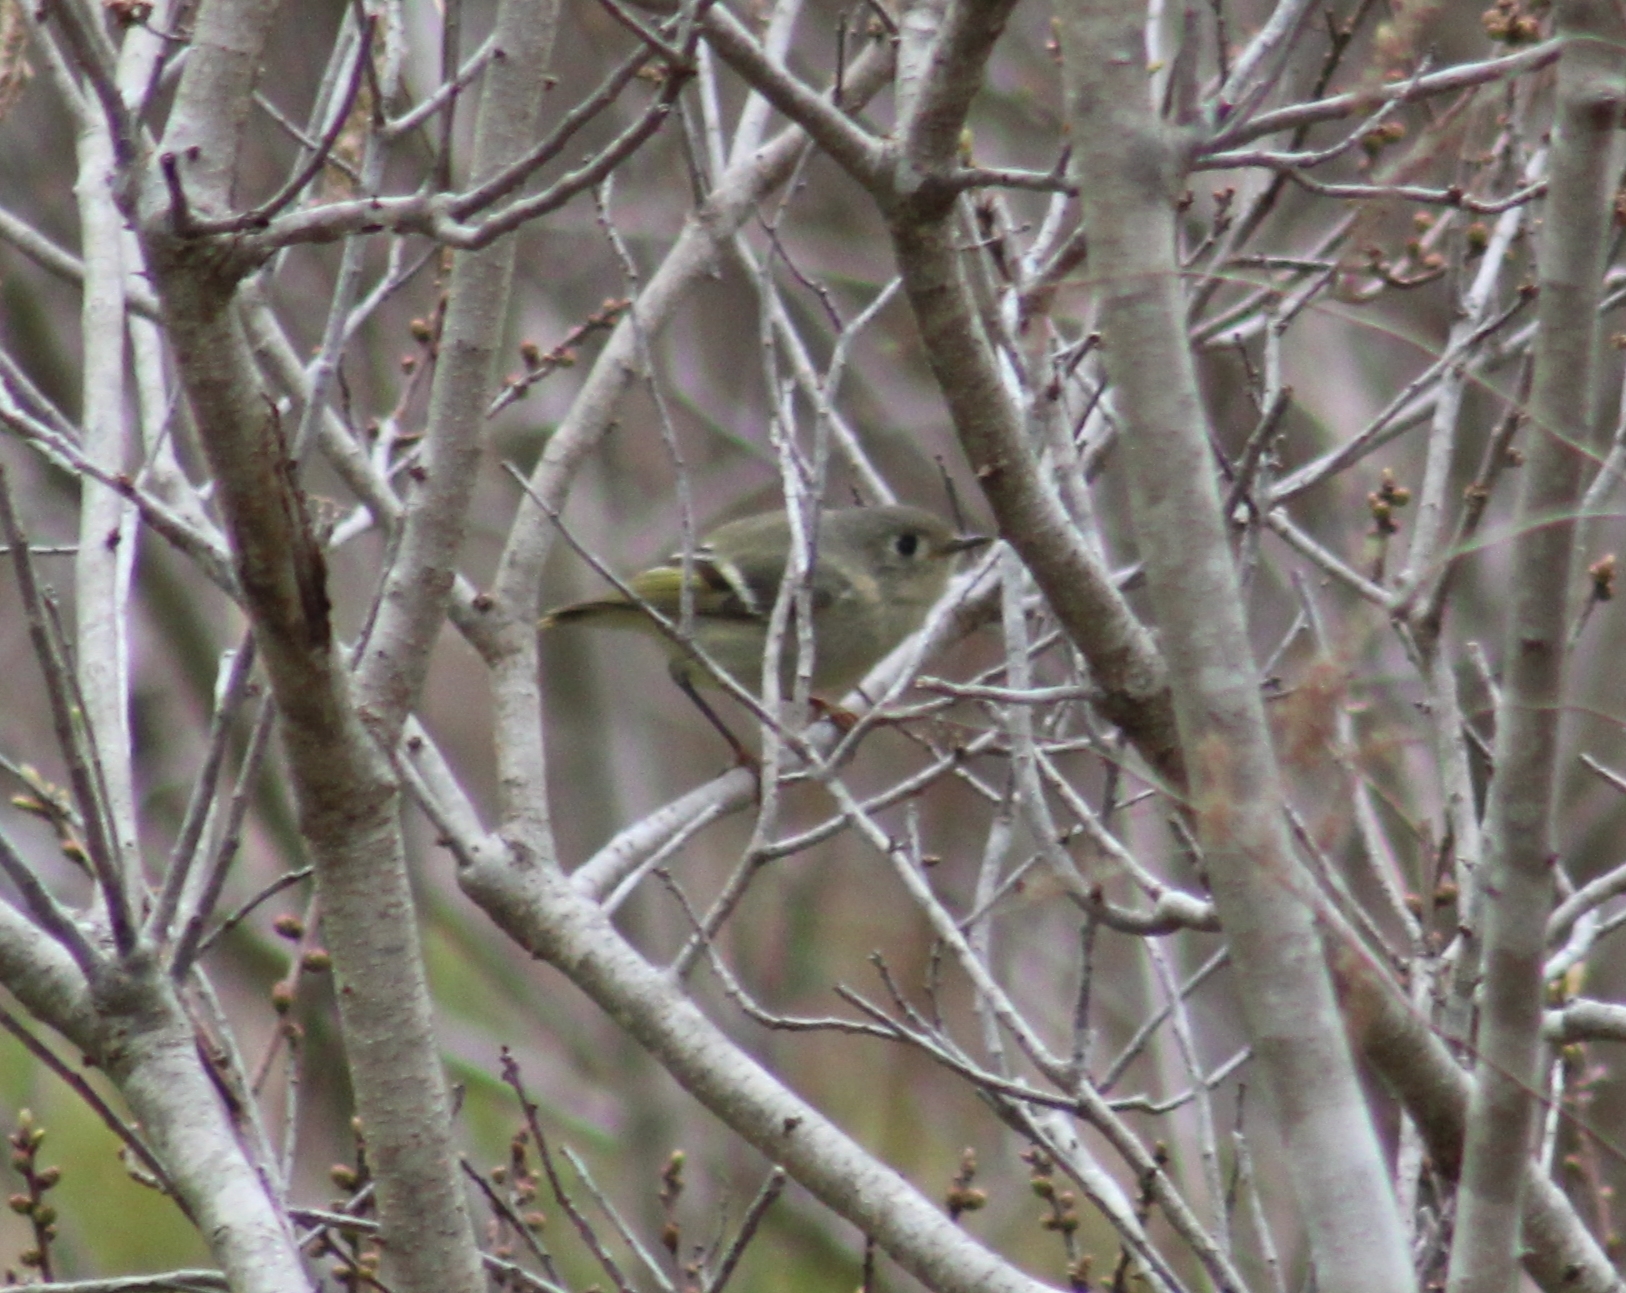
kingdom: Animalia
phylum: Chordata
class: Aves
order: Passeriformes
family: Regulidae
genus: Regulus
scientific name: Regulus calendula
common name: Ruby-crowned kinglet
